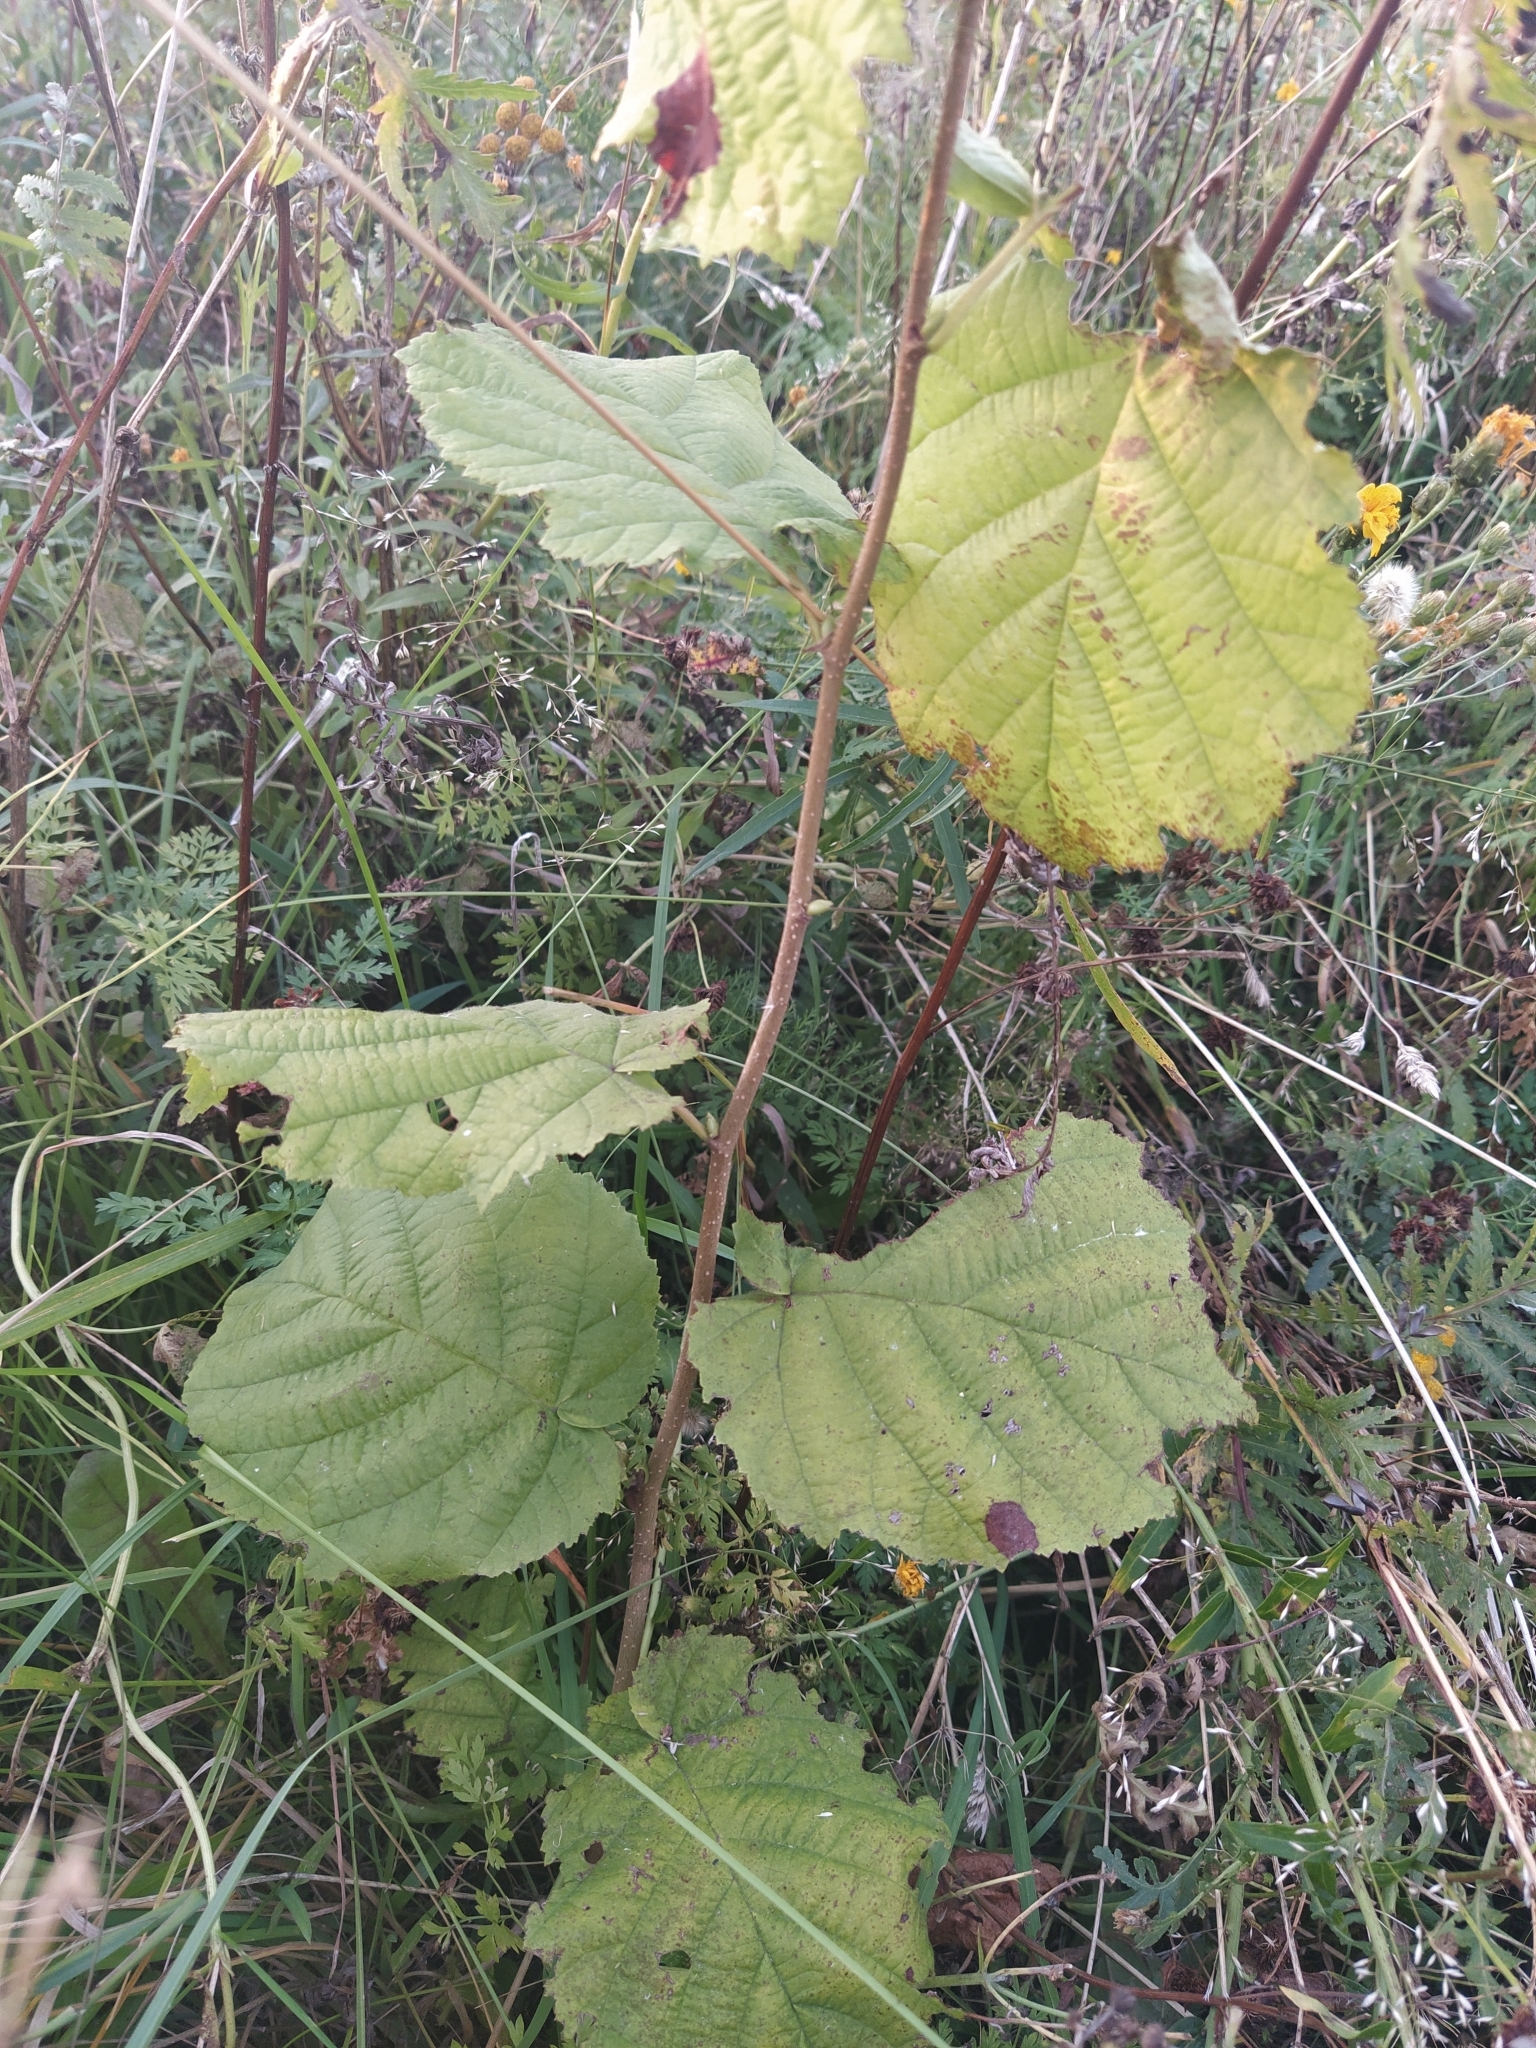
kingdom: Plantae
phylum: Tracheophyta
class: Magnoliopsida
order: Fagales
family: Betulaceae
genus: Corylus
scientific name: Corylus avellana
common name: European hazel
